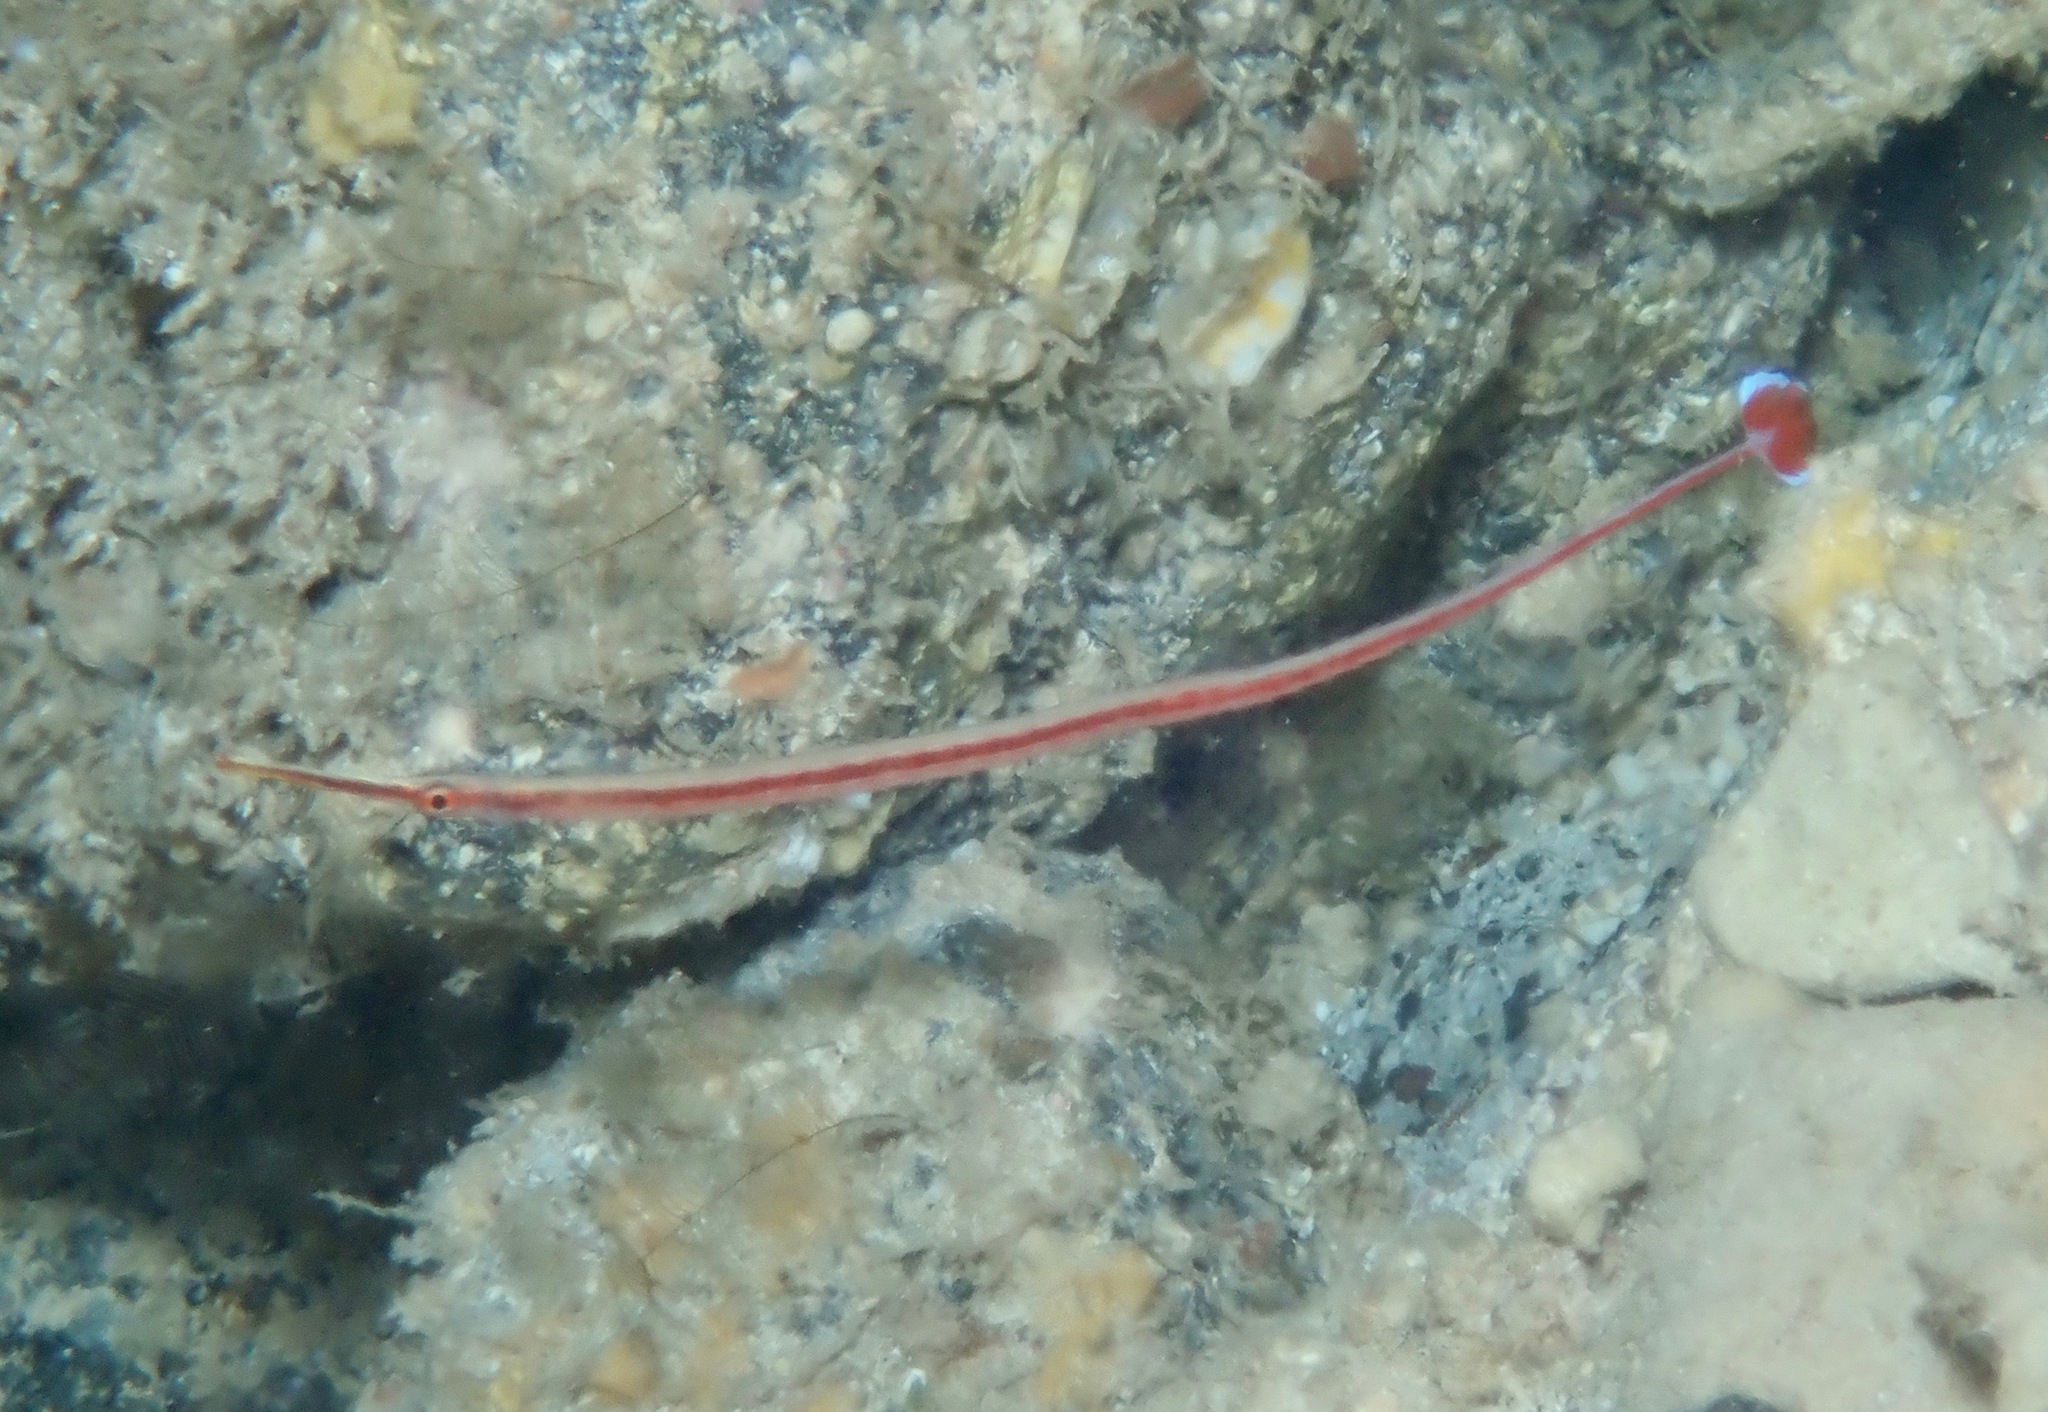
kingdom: Animalia
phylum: Chordata
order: Syngnathiformes
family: Syngnathidae
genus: Dunckerocampus
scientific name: Dunckerocampus baldwini
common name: Baldwin's pipefish
